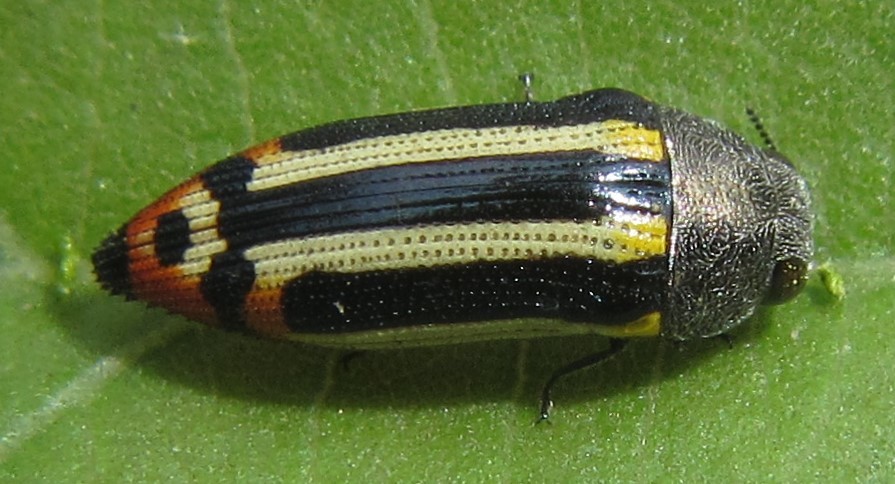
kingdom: Animalia
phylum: Arthropoda
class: Insecta
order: Coleoptera
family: Buprestidae
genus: Acmaeodera
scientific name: Acmaeodera grata
